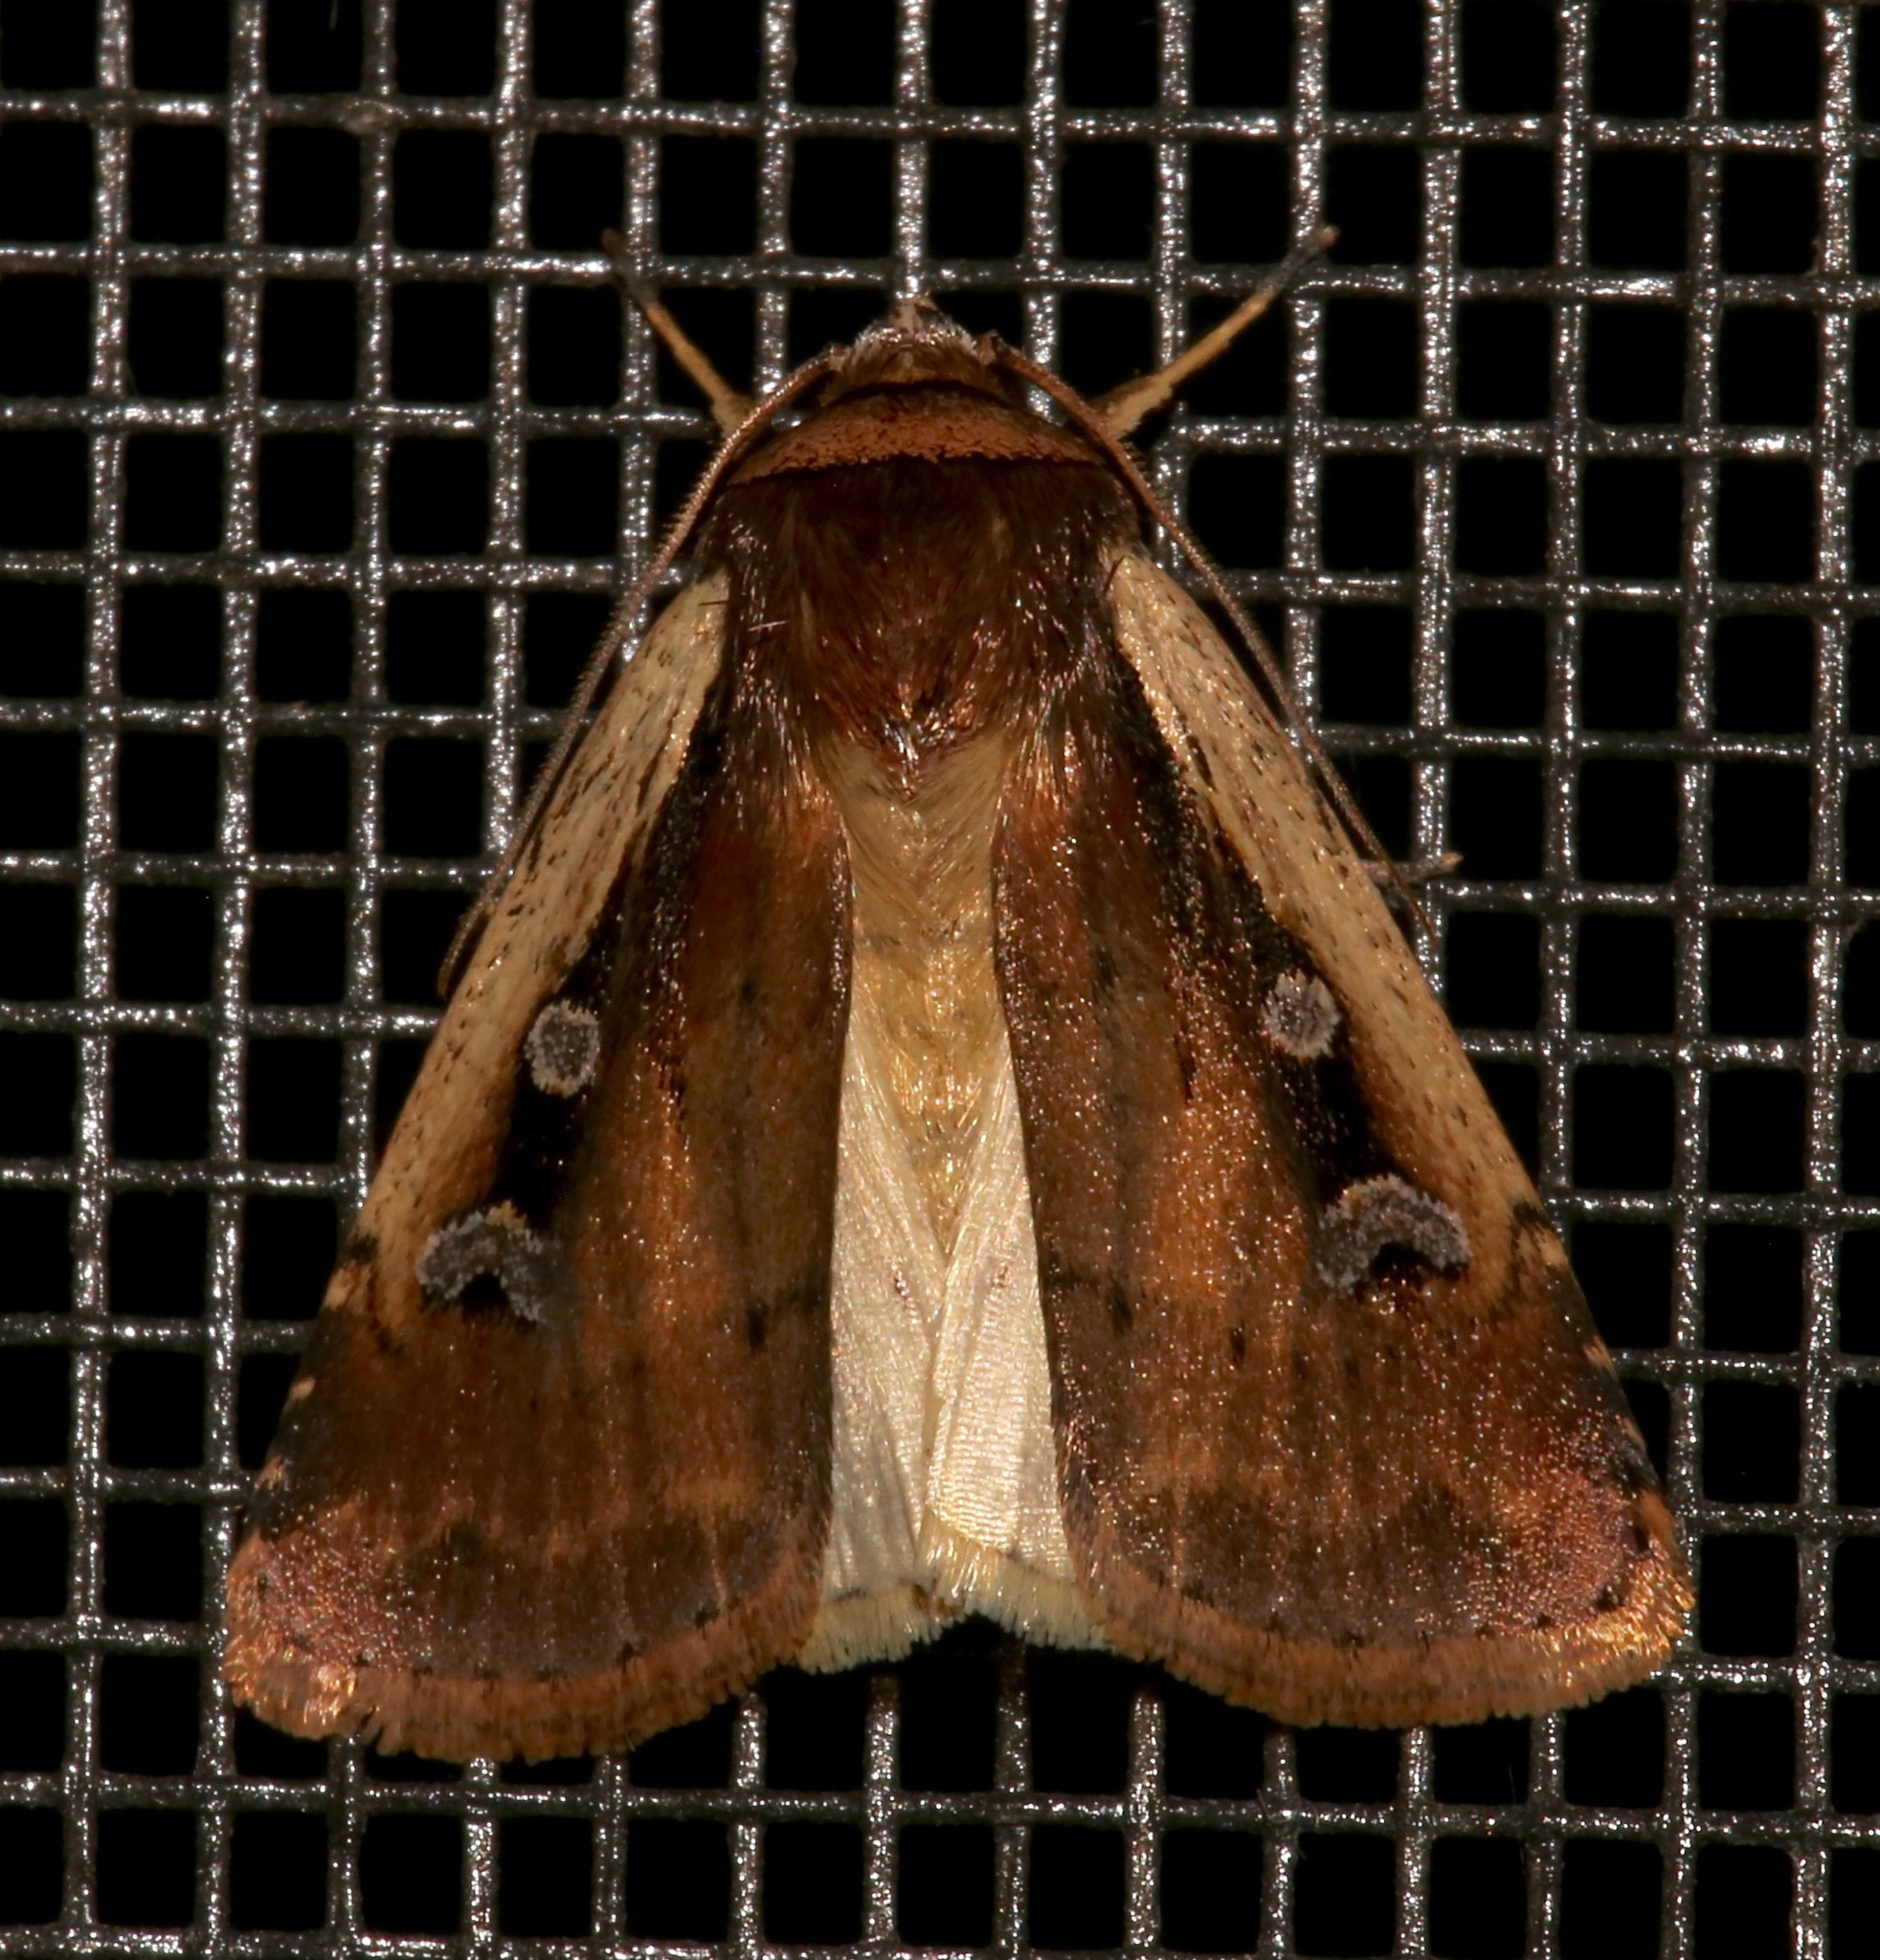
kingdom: Animalia
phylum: Arthropoda
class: Insecta
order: Lepidoptera
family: Noctuidae
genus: Ochropleura
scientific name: Ochropleura implecta
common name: Flame-shouldered dart
